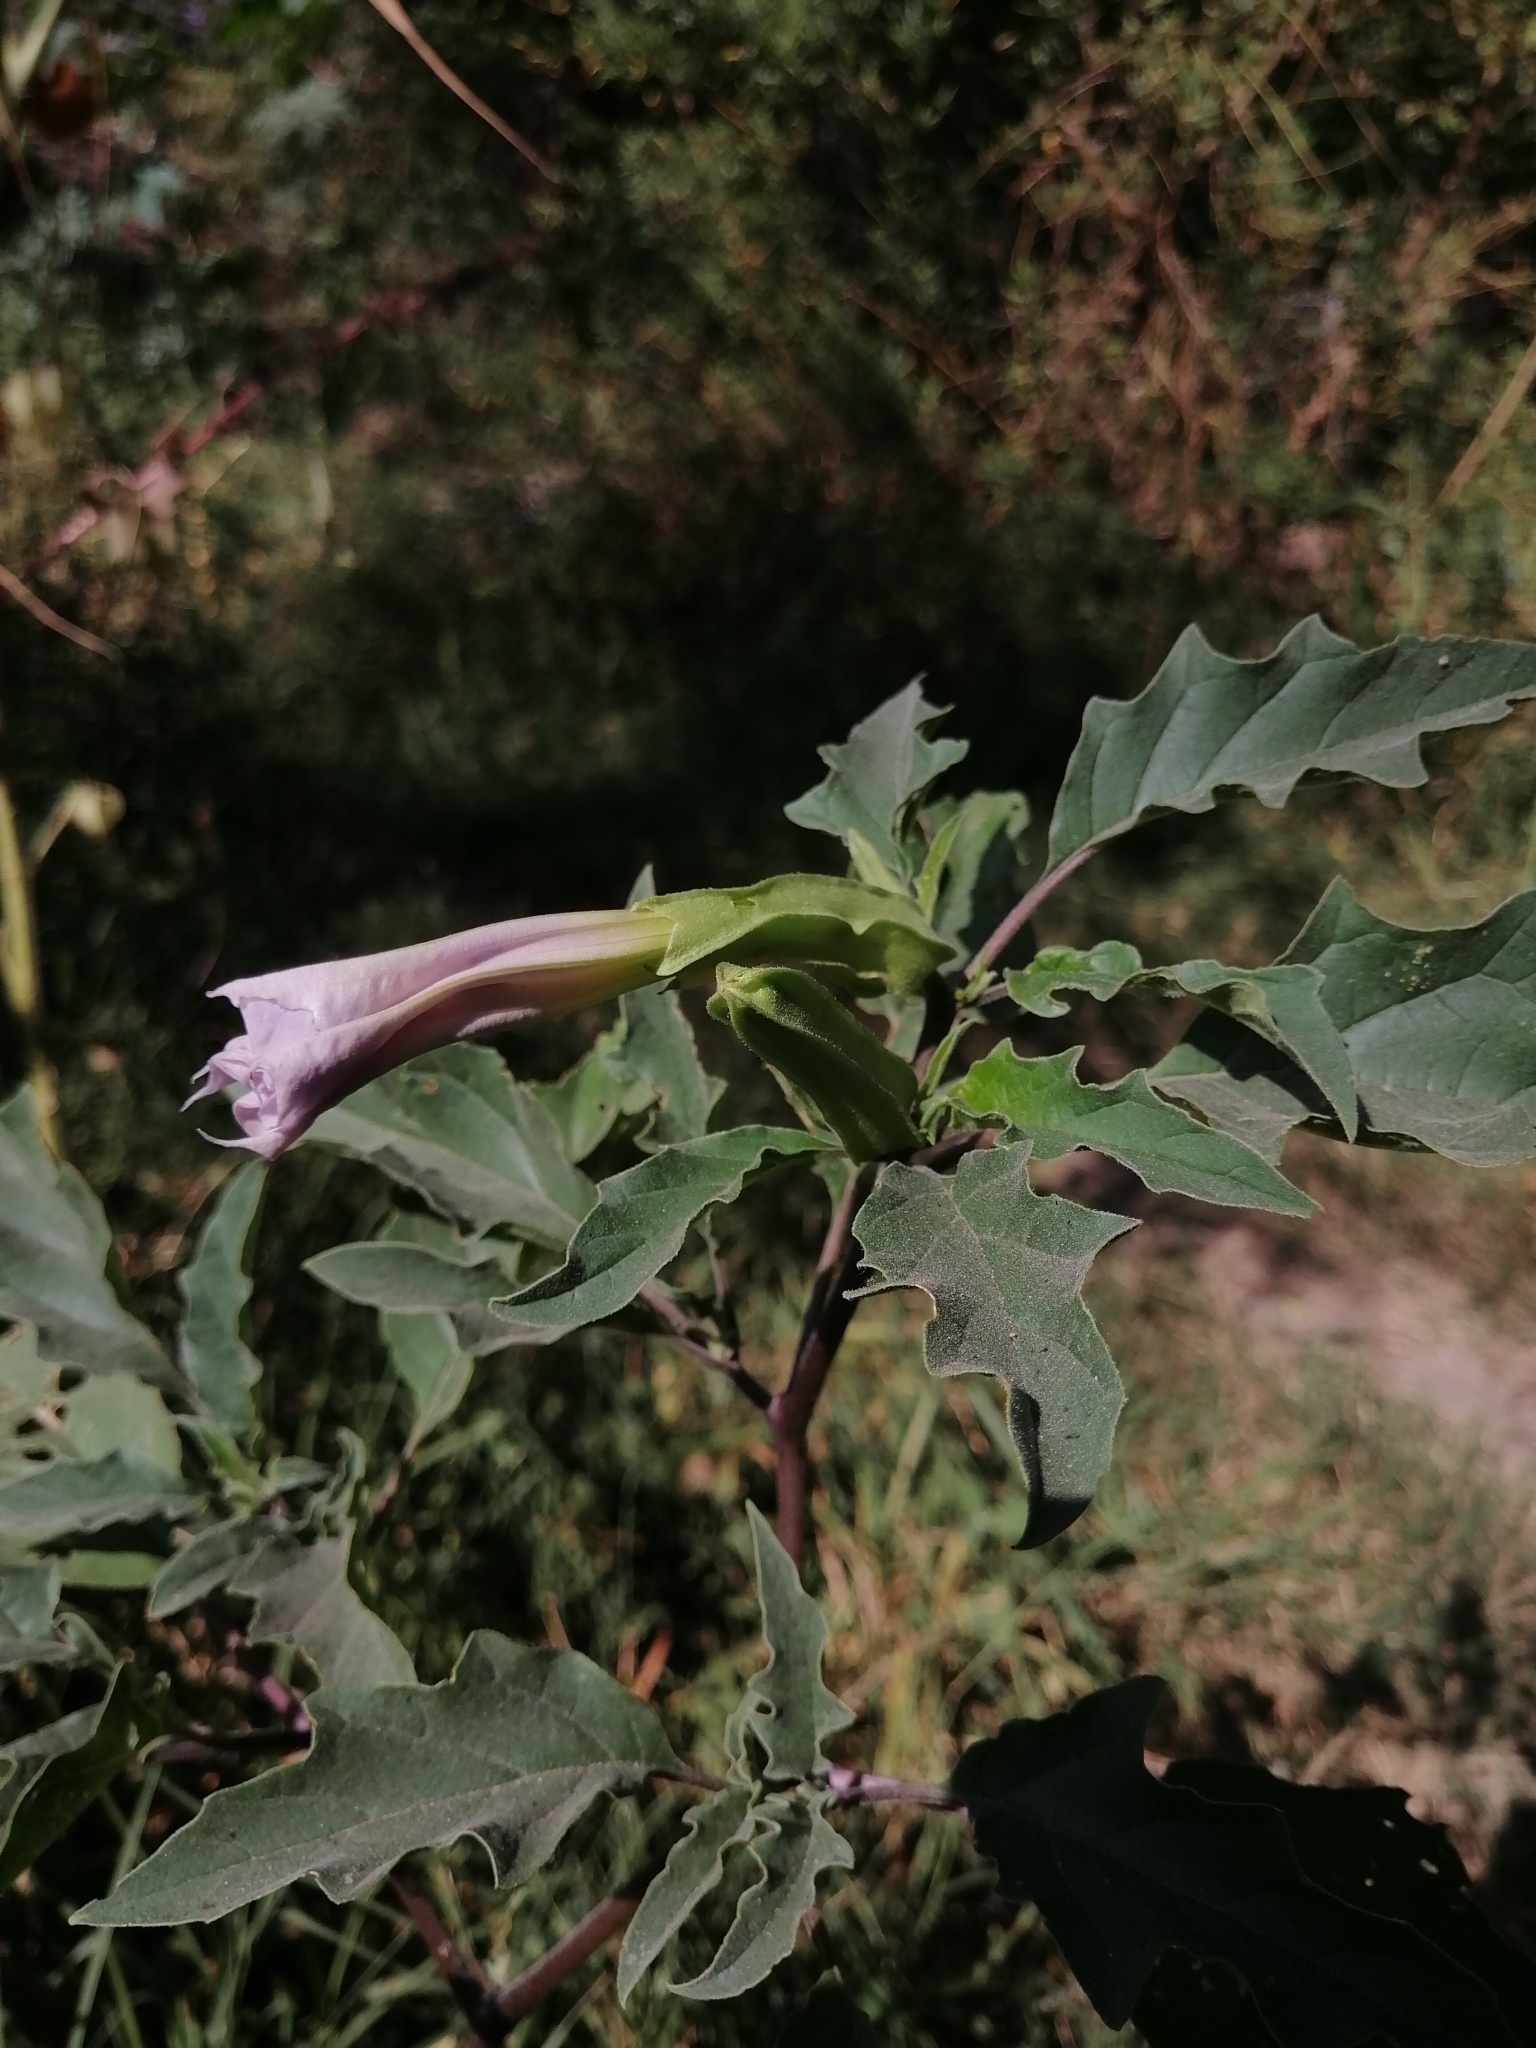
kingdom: Plantae
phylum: Tracheophyta
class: Magnoliopsida
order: Solanales
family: Solanaceae
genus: Datura
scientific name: Datura stramonium
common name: Thorn-apple
